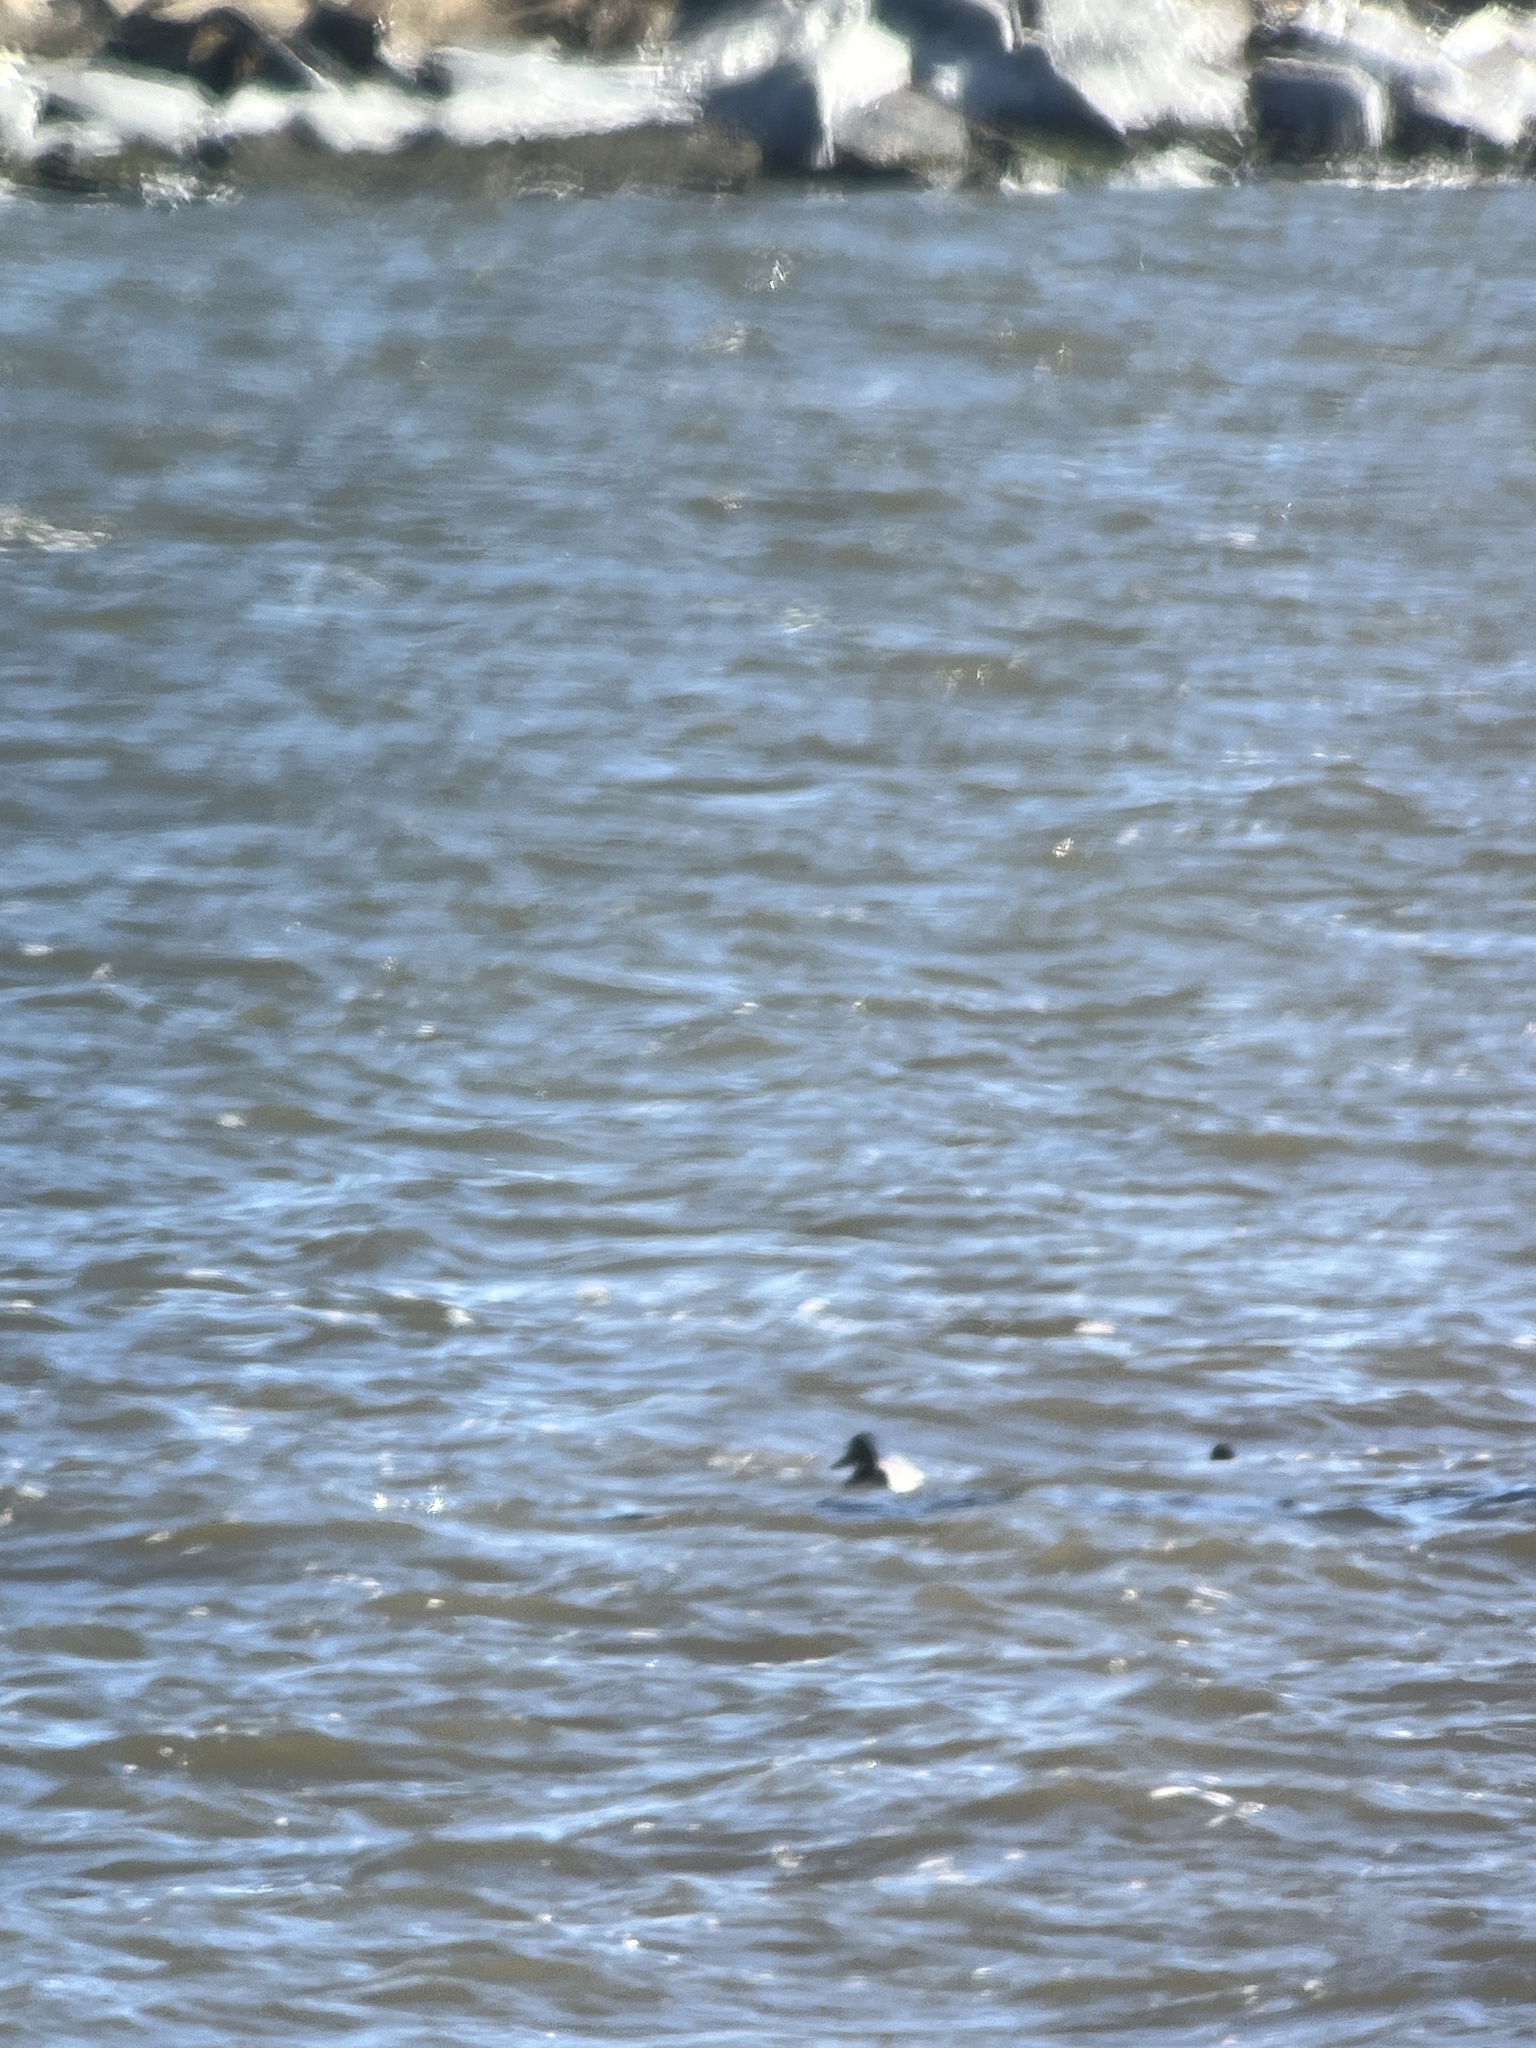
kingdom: Animalia
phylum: Chordata
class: Aves
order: Anseriformes
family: Anatidae
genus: Aythya
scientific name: Aythya affinis
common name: Lesser scaup
